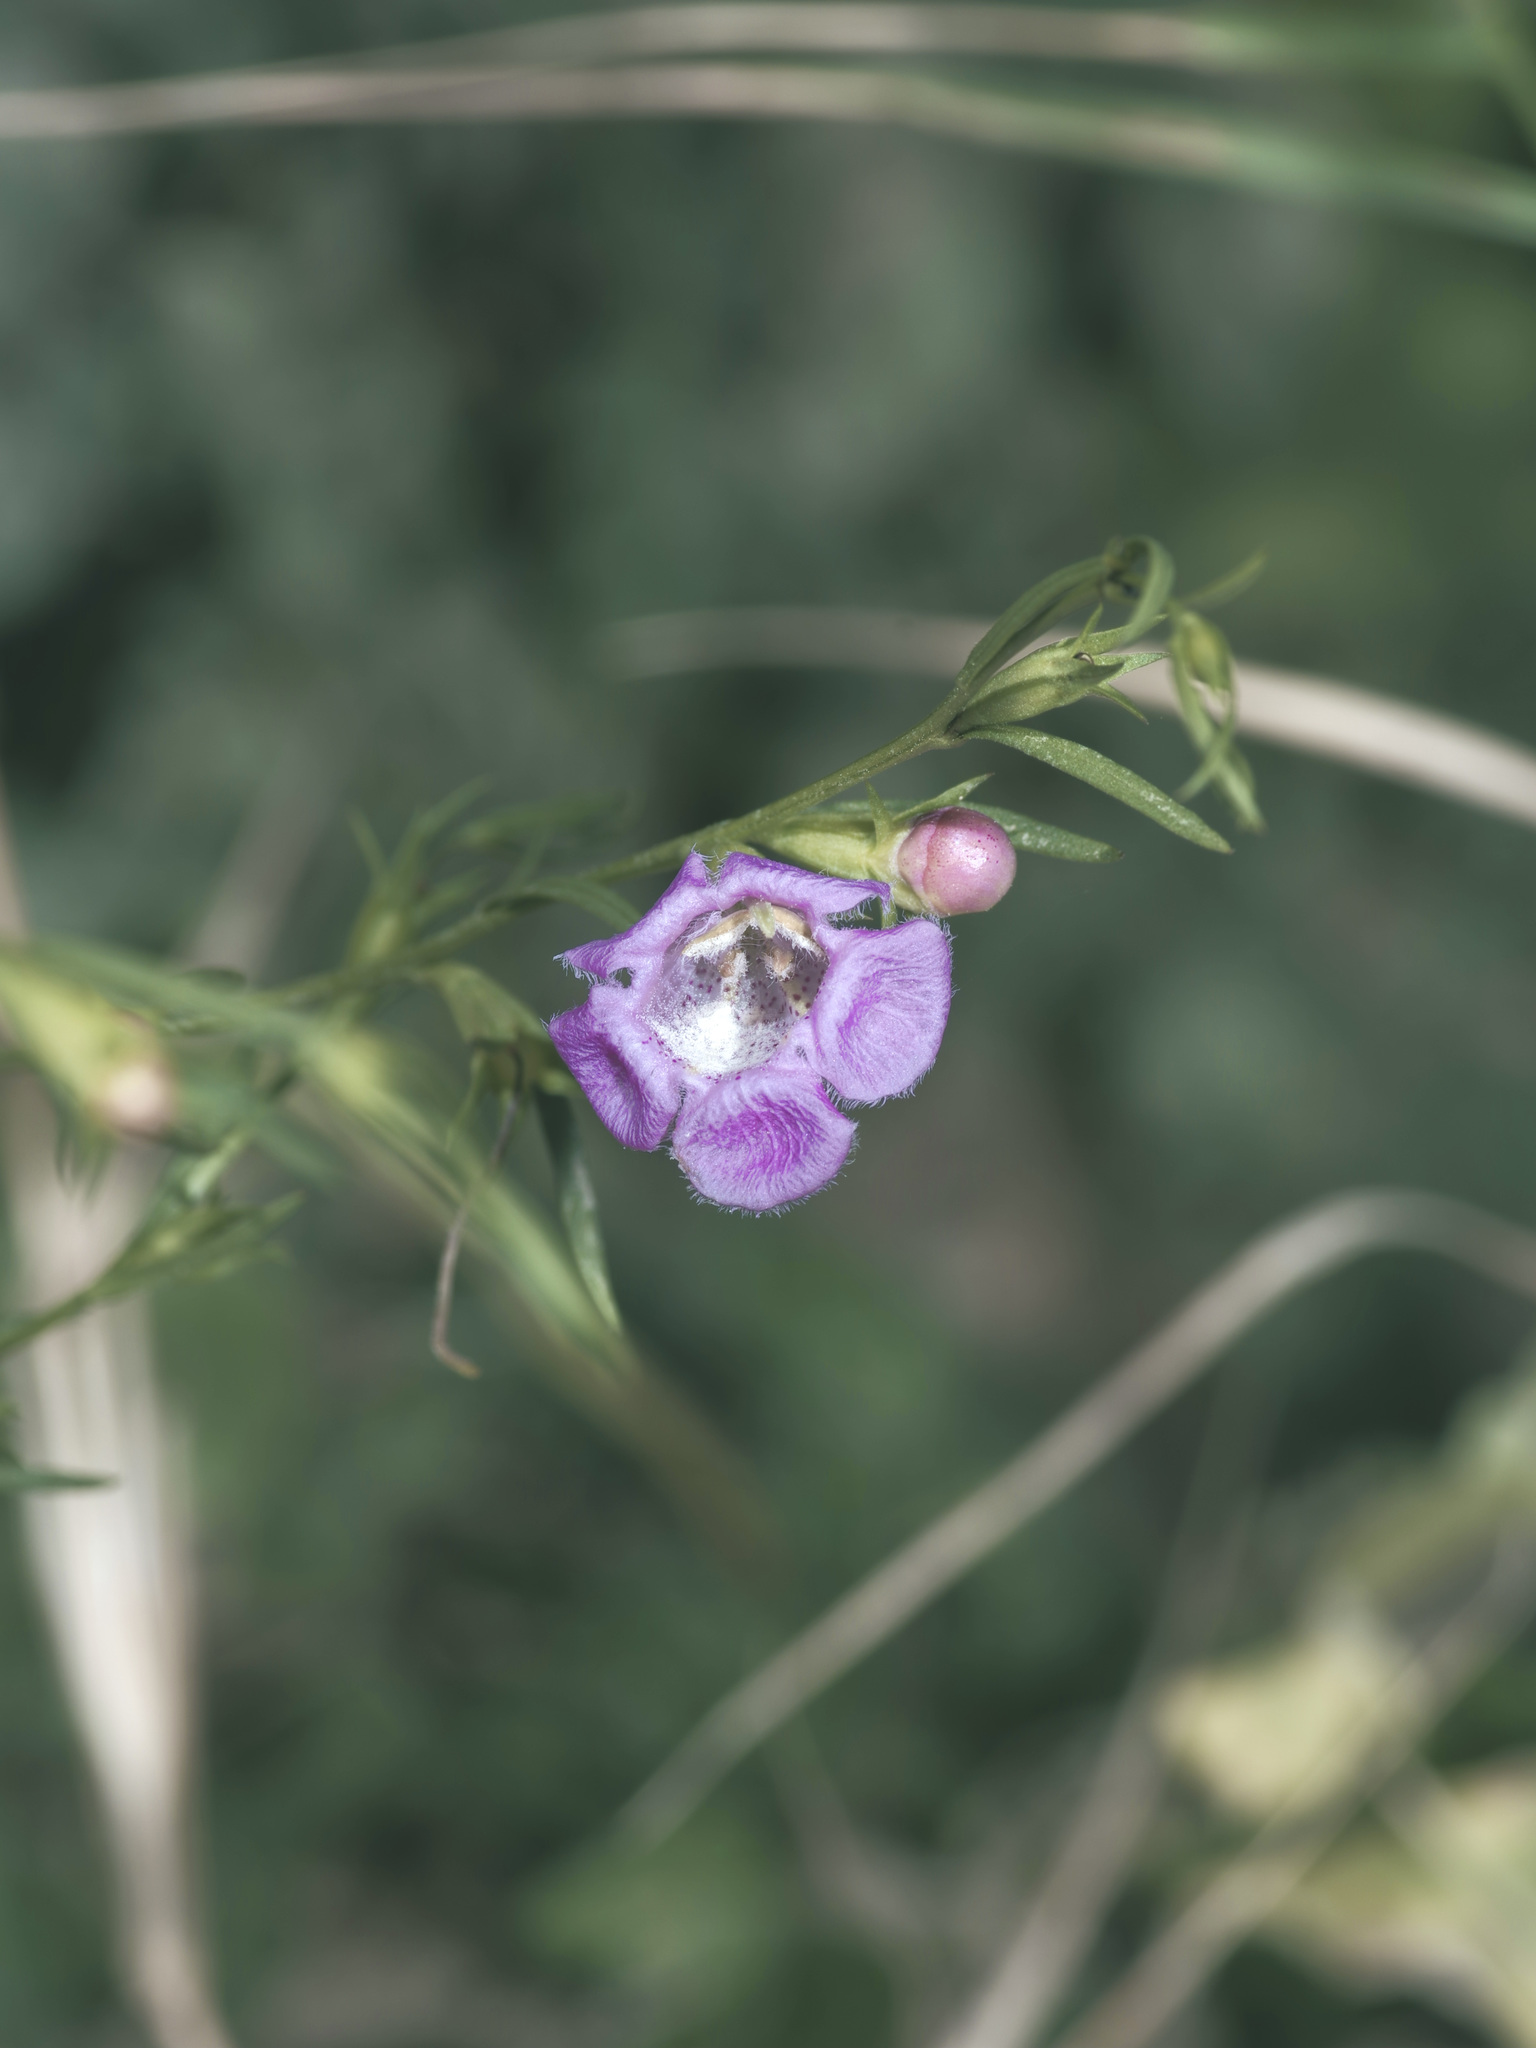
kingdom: Plantae
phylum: Tracheophyta
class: Magnoliopsida
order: Lamiales
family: Orobanchaceae
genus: Agalinis
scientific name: Agalinis heterophylla
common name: Prairie agalinis
